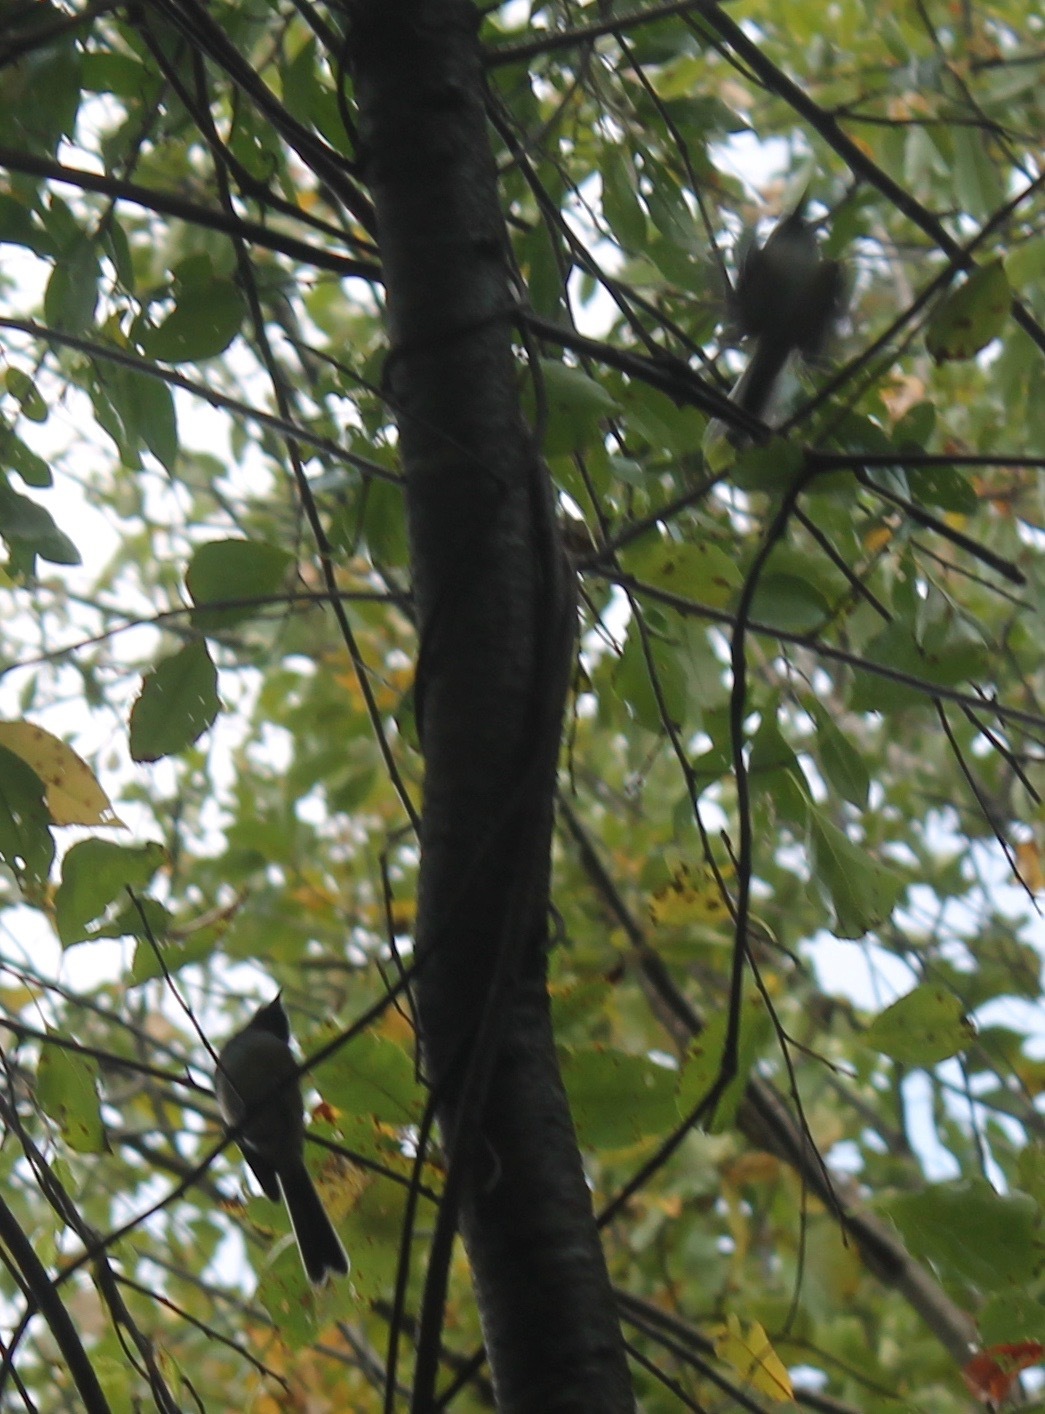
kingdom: Animalia
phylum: Chordata
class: Aves
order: Passeriformes
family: Paridae
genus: Poecile
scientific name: Poecile atricapillus
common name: Black-capped chickadee
